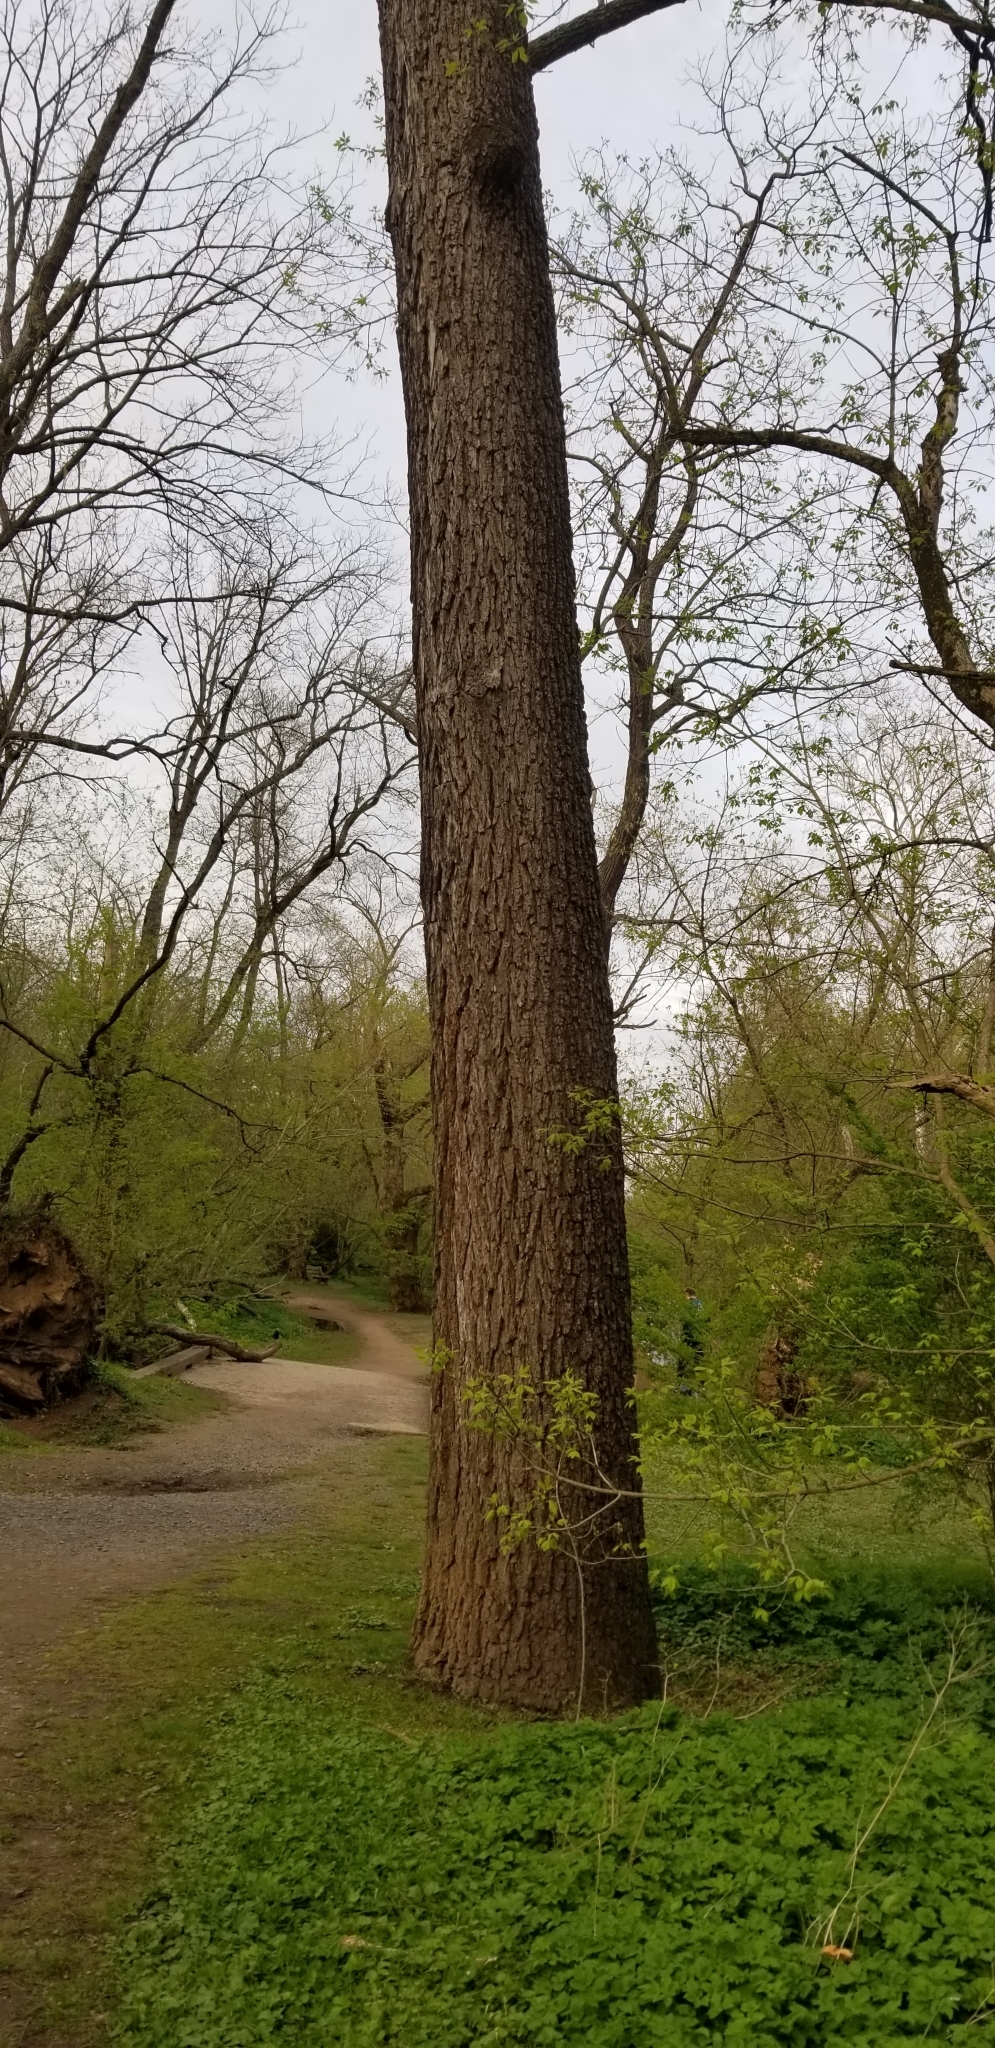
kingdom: Plantae
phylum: Tracheophyta
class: Magnoliopsida
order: Magnoliales
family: Magnoliaceae
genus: Liriodendron
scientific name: Liriodendron tulipifera
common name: Tulip tree
